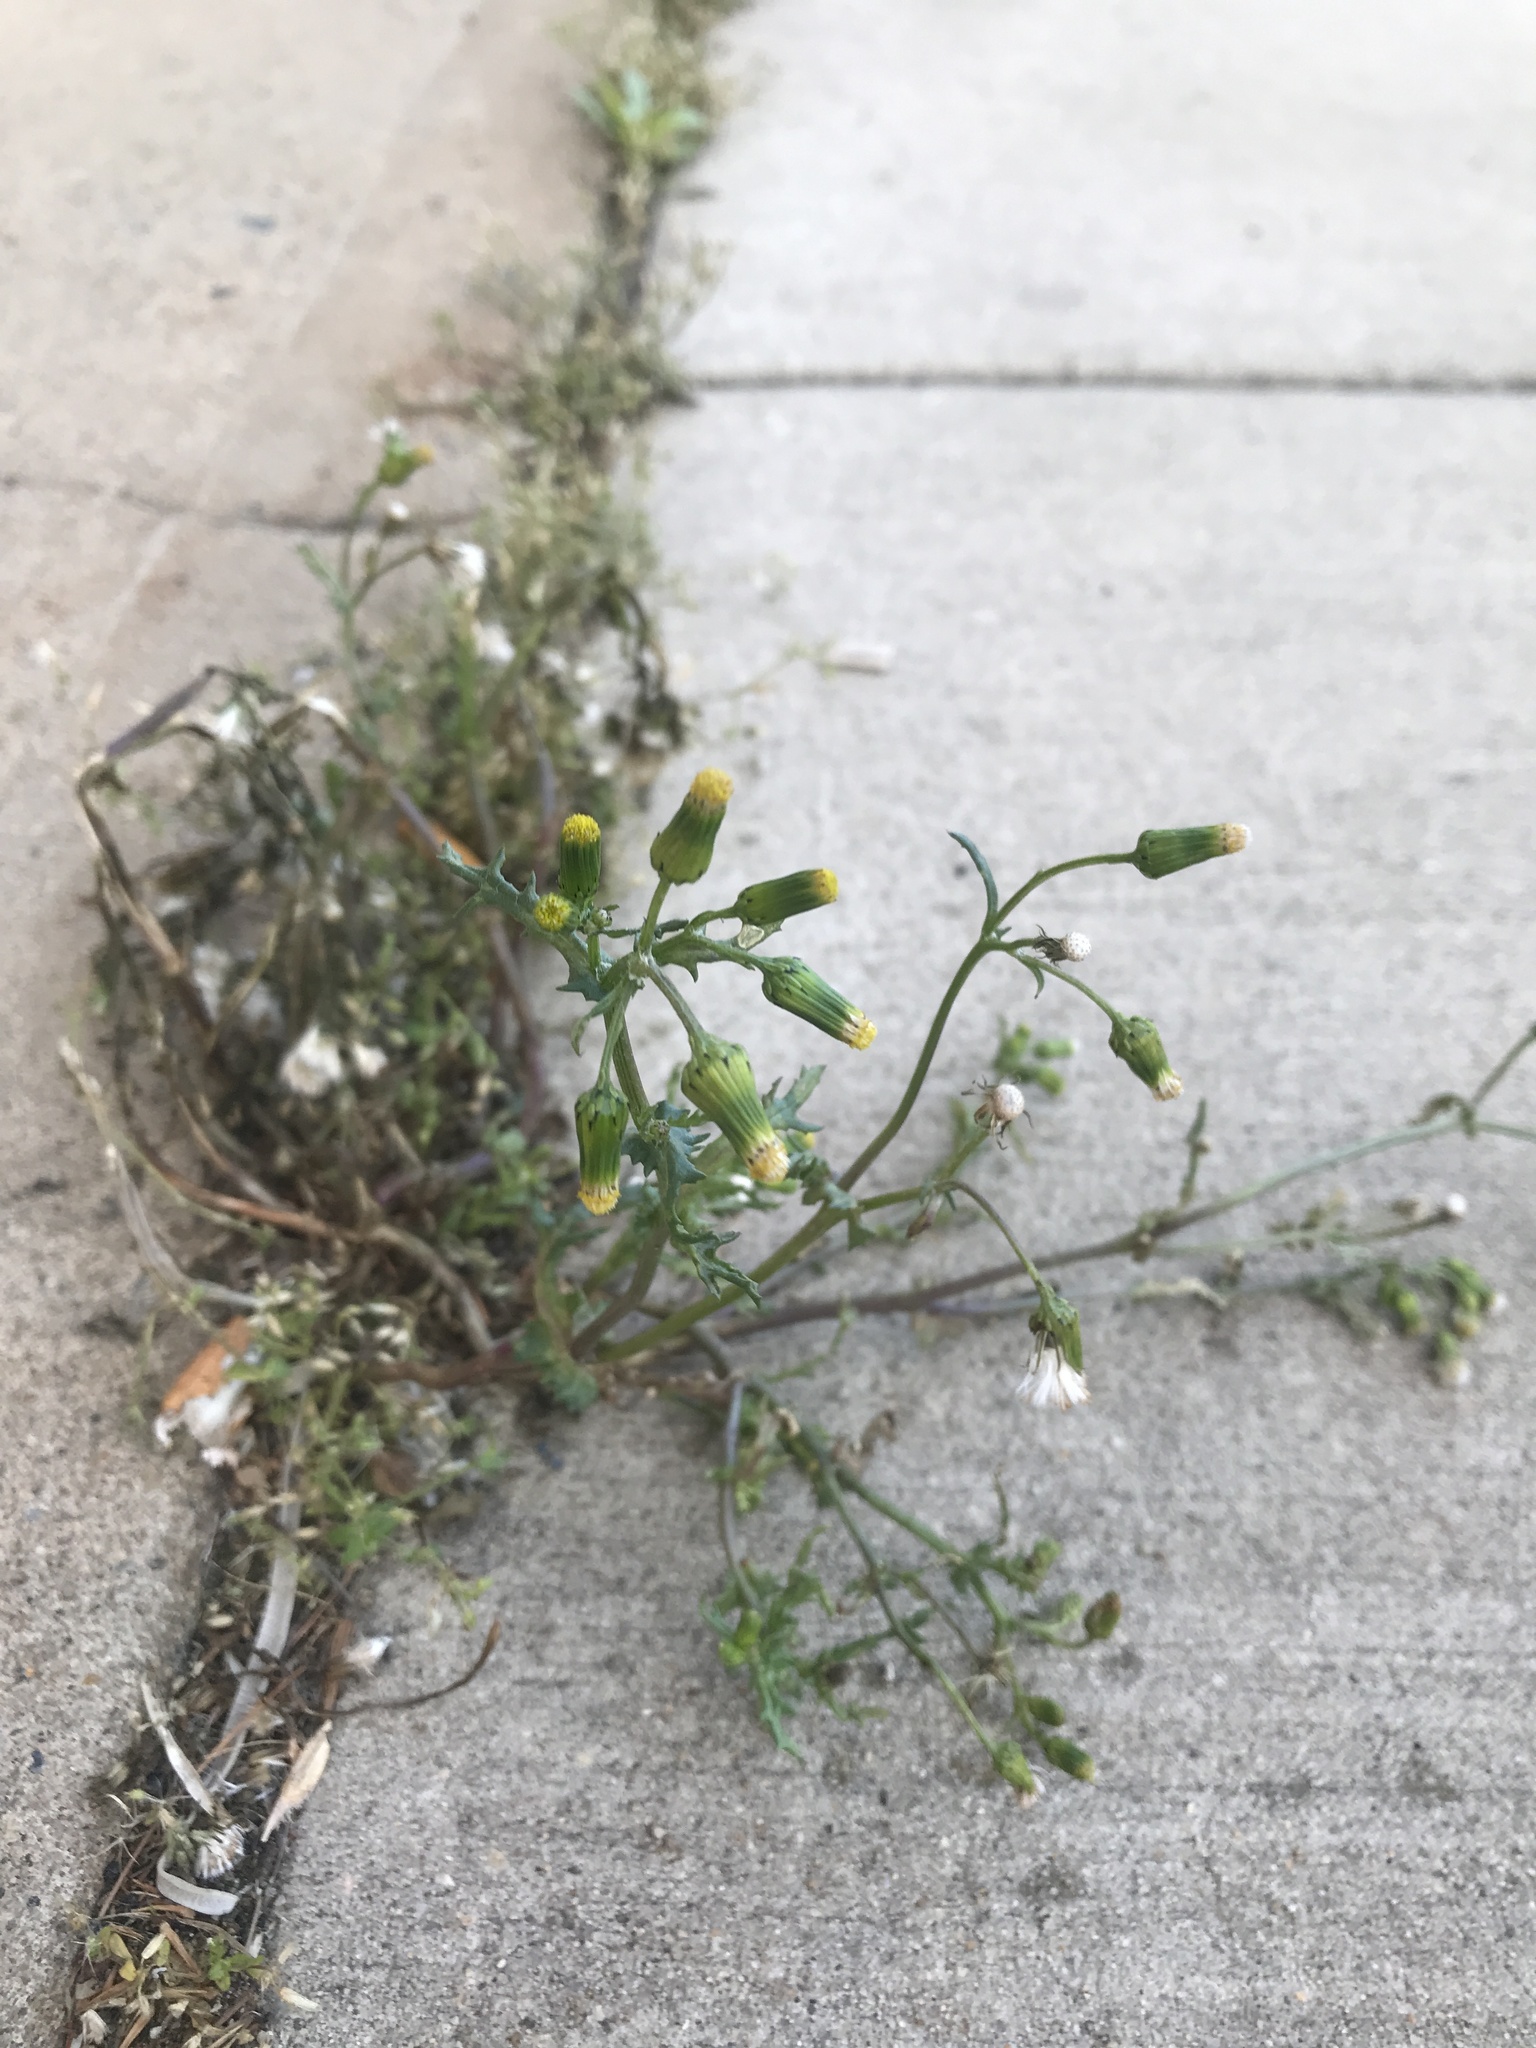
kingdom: Plantae
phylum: Tracheophyta
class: Magnoliopsida
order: Asterales
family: Asteraceae
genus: Senecio
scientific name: Senecio vulgaris
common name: Old-man-in-the-spring
